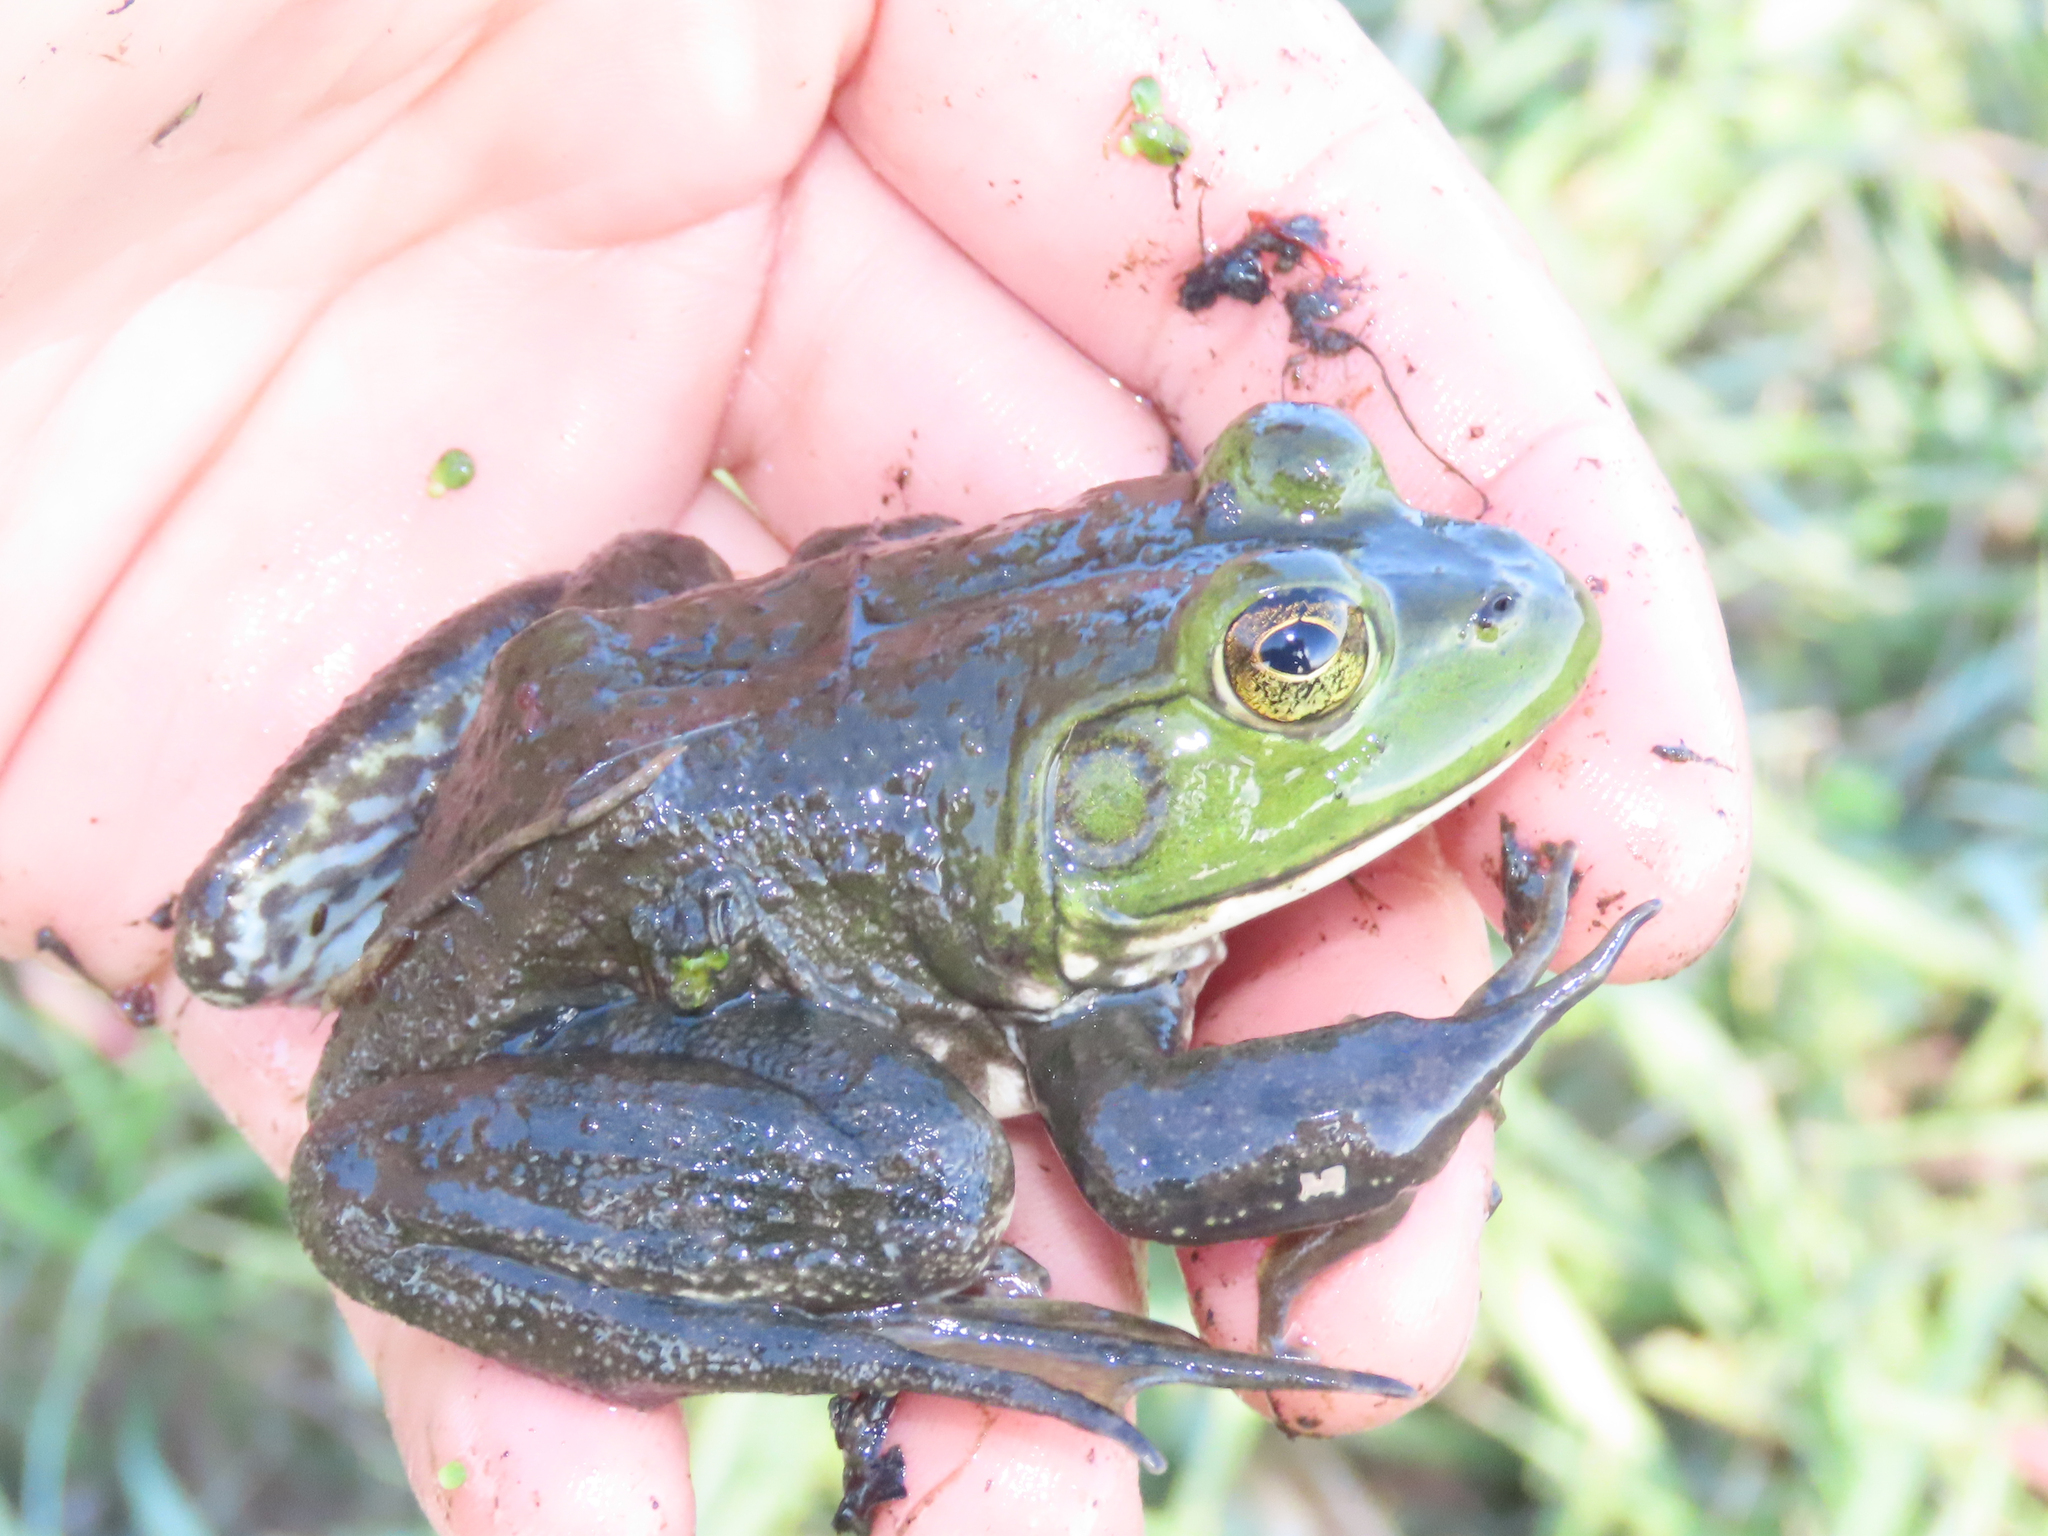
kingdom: Animalia
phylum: Chordata
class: Amphibia
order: Anura
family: Ranidae
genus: Lithobates
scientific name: Lithobates catesbeianus
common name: American bullfrog
